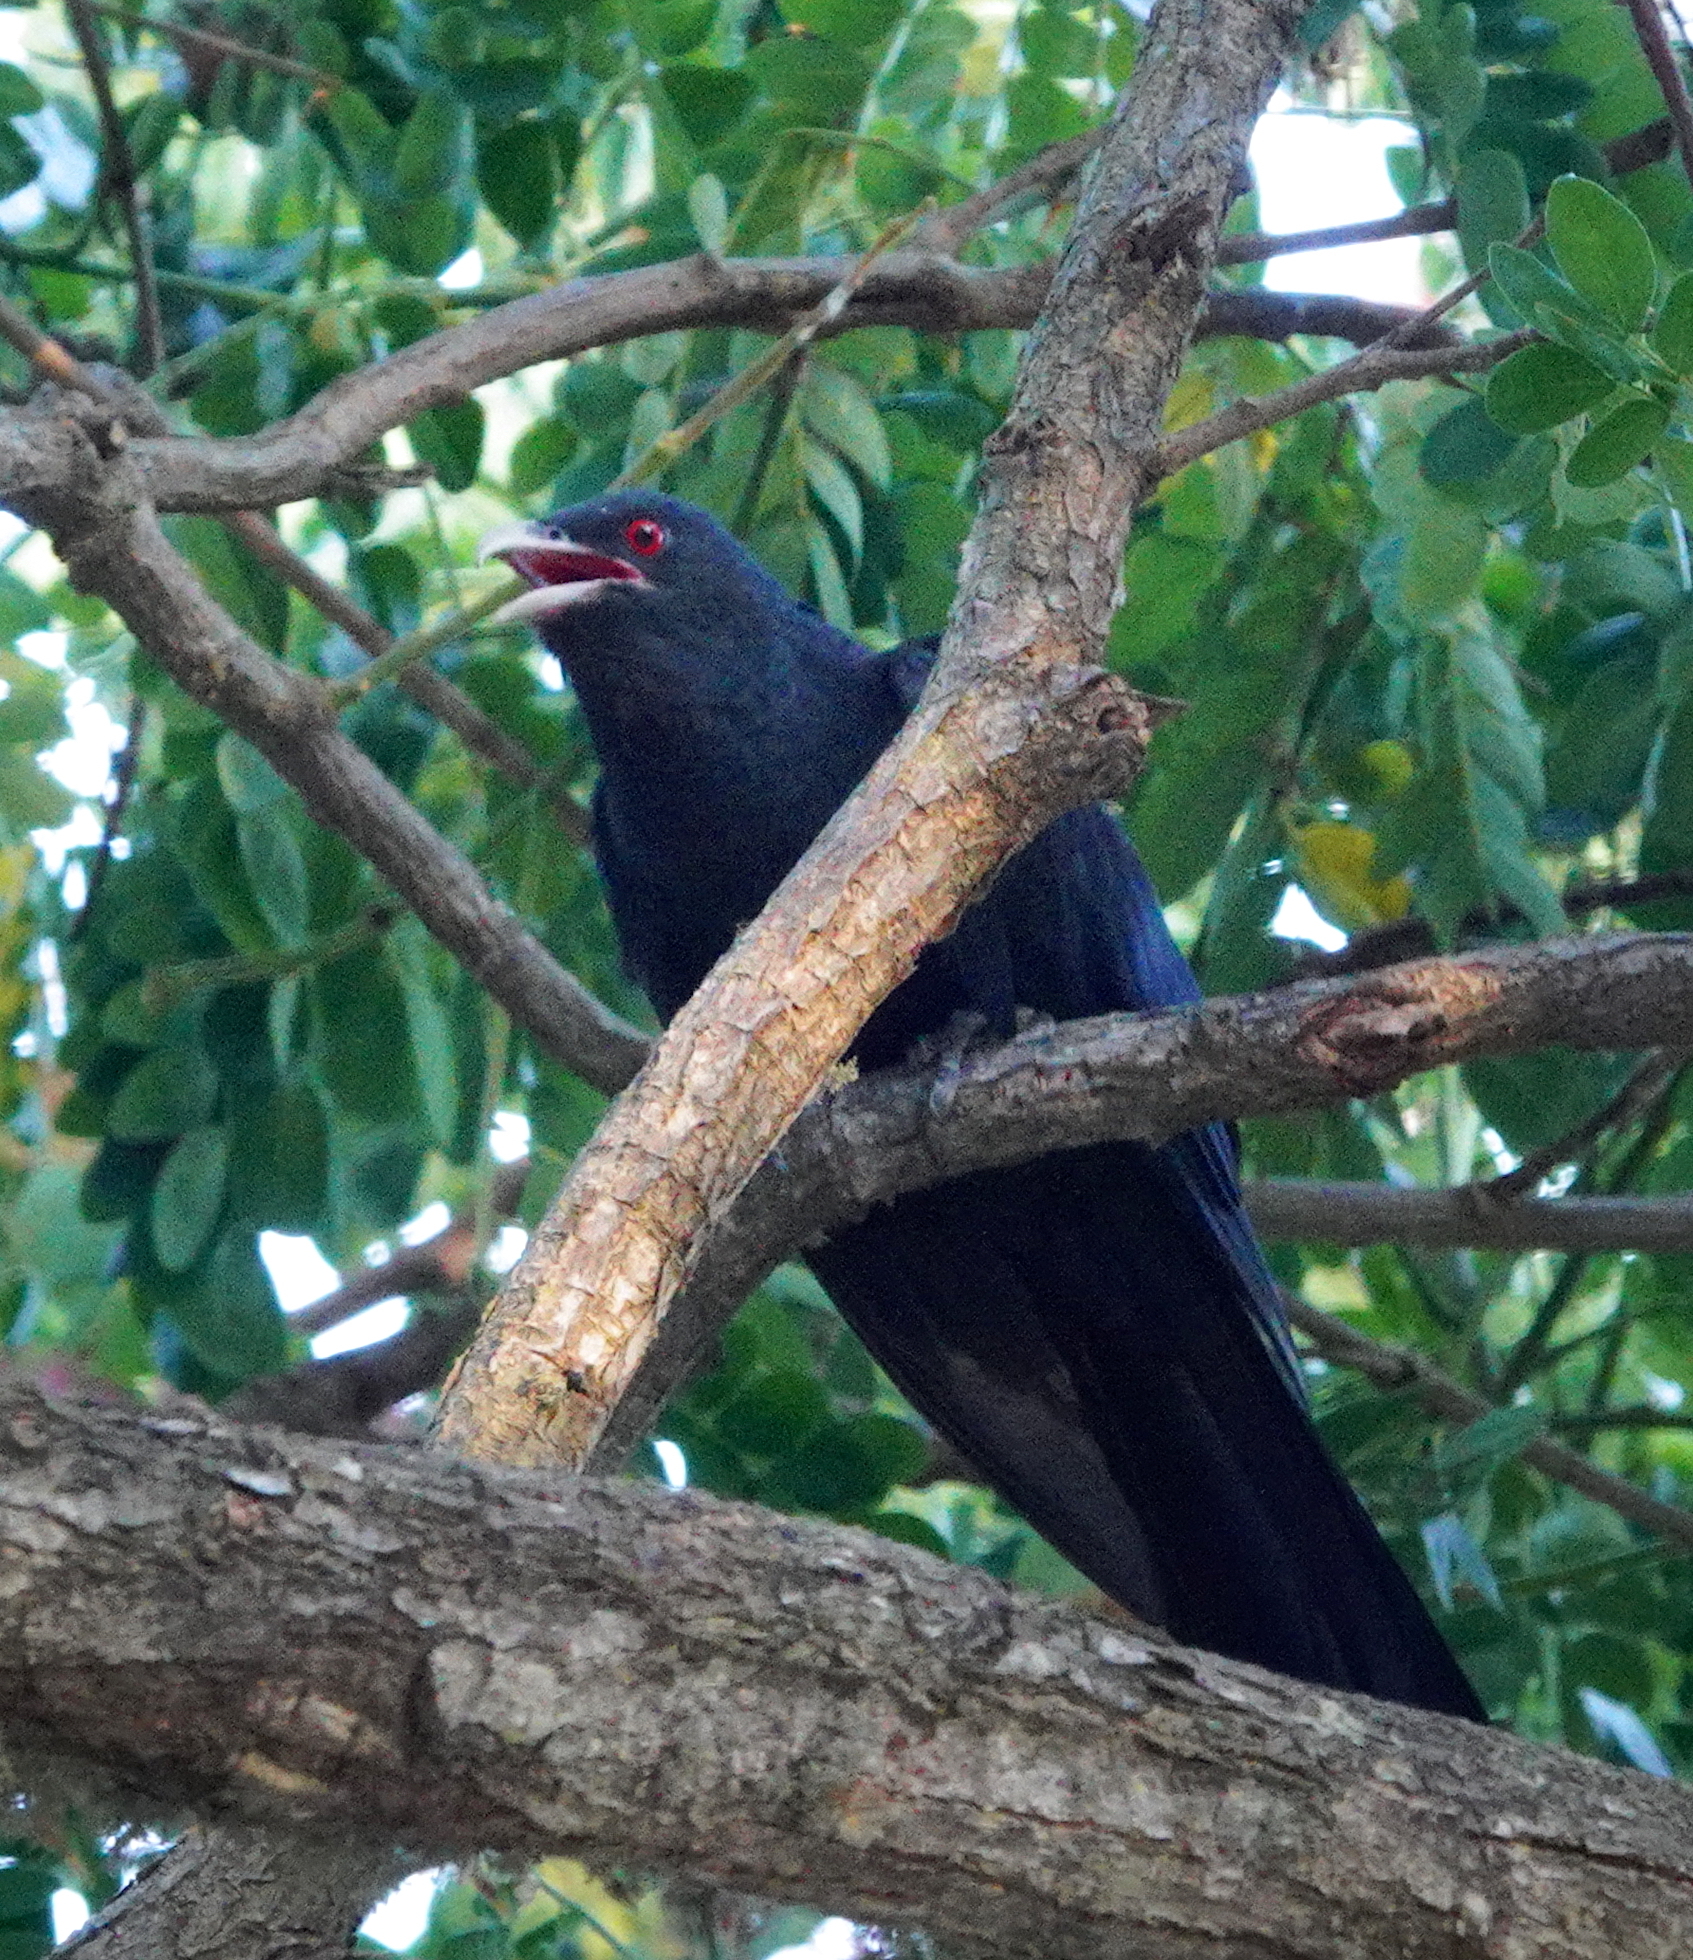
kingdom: Animalia
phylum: Chordata
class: Aves
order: Cuculiformes
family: Cuculidae
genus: Eudynamys
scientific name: Eudynamys scolopaceus
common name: Asian koel
